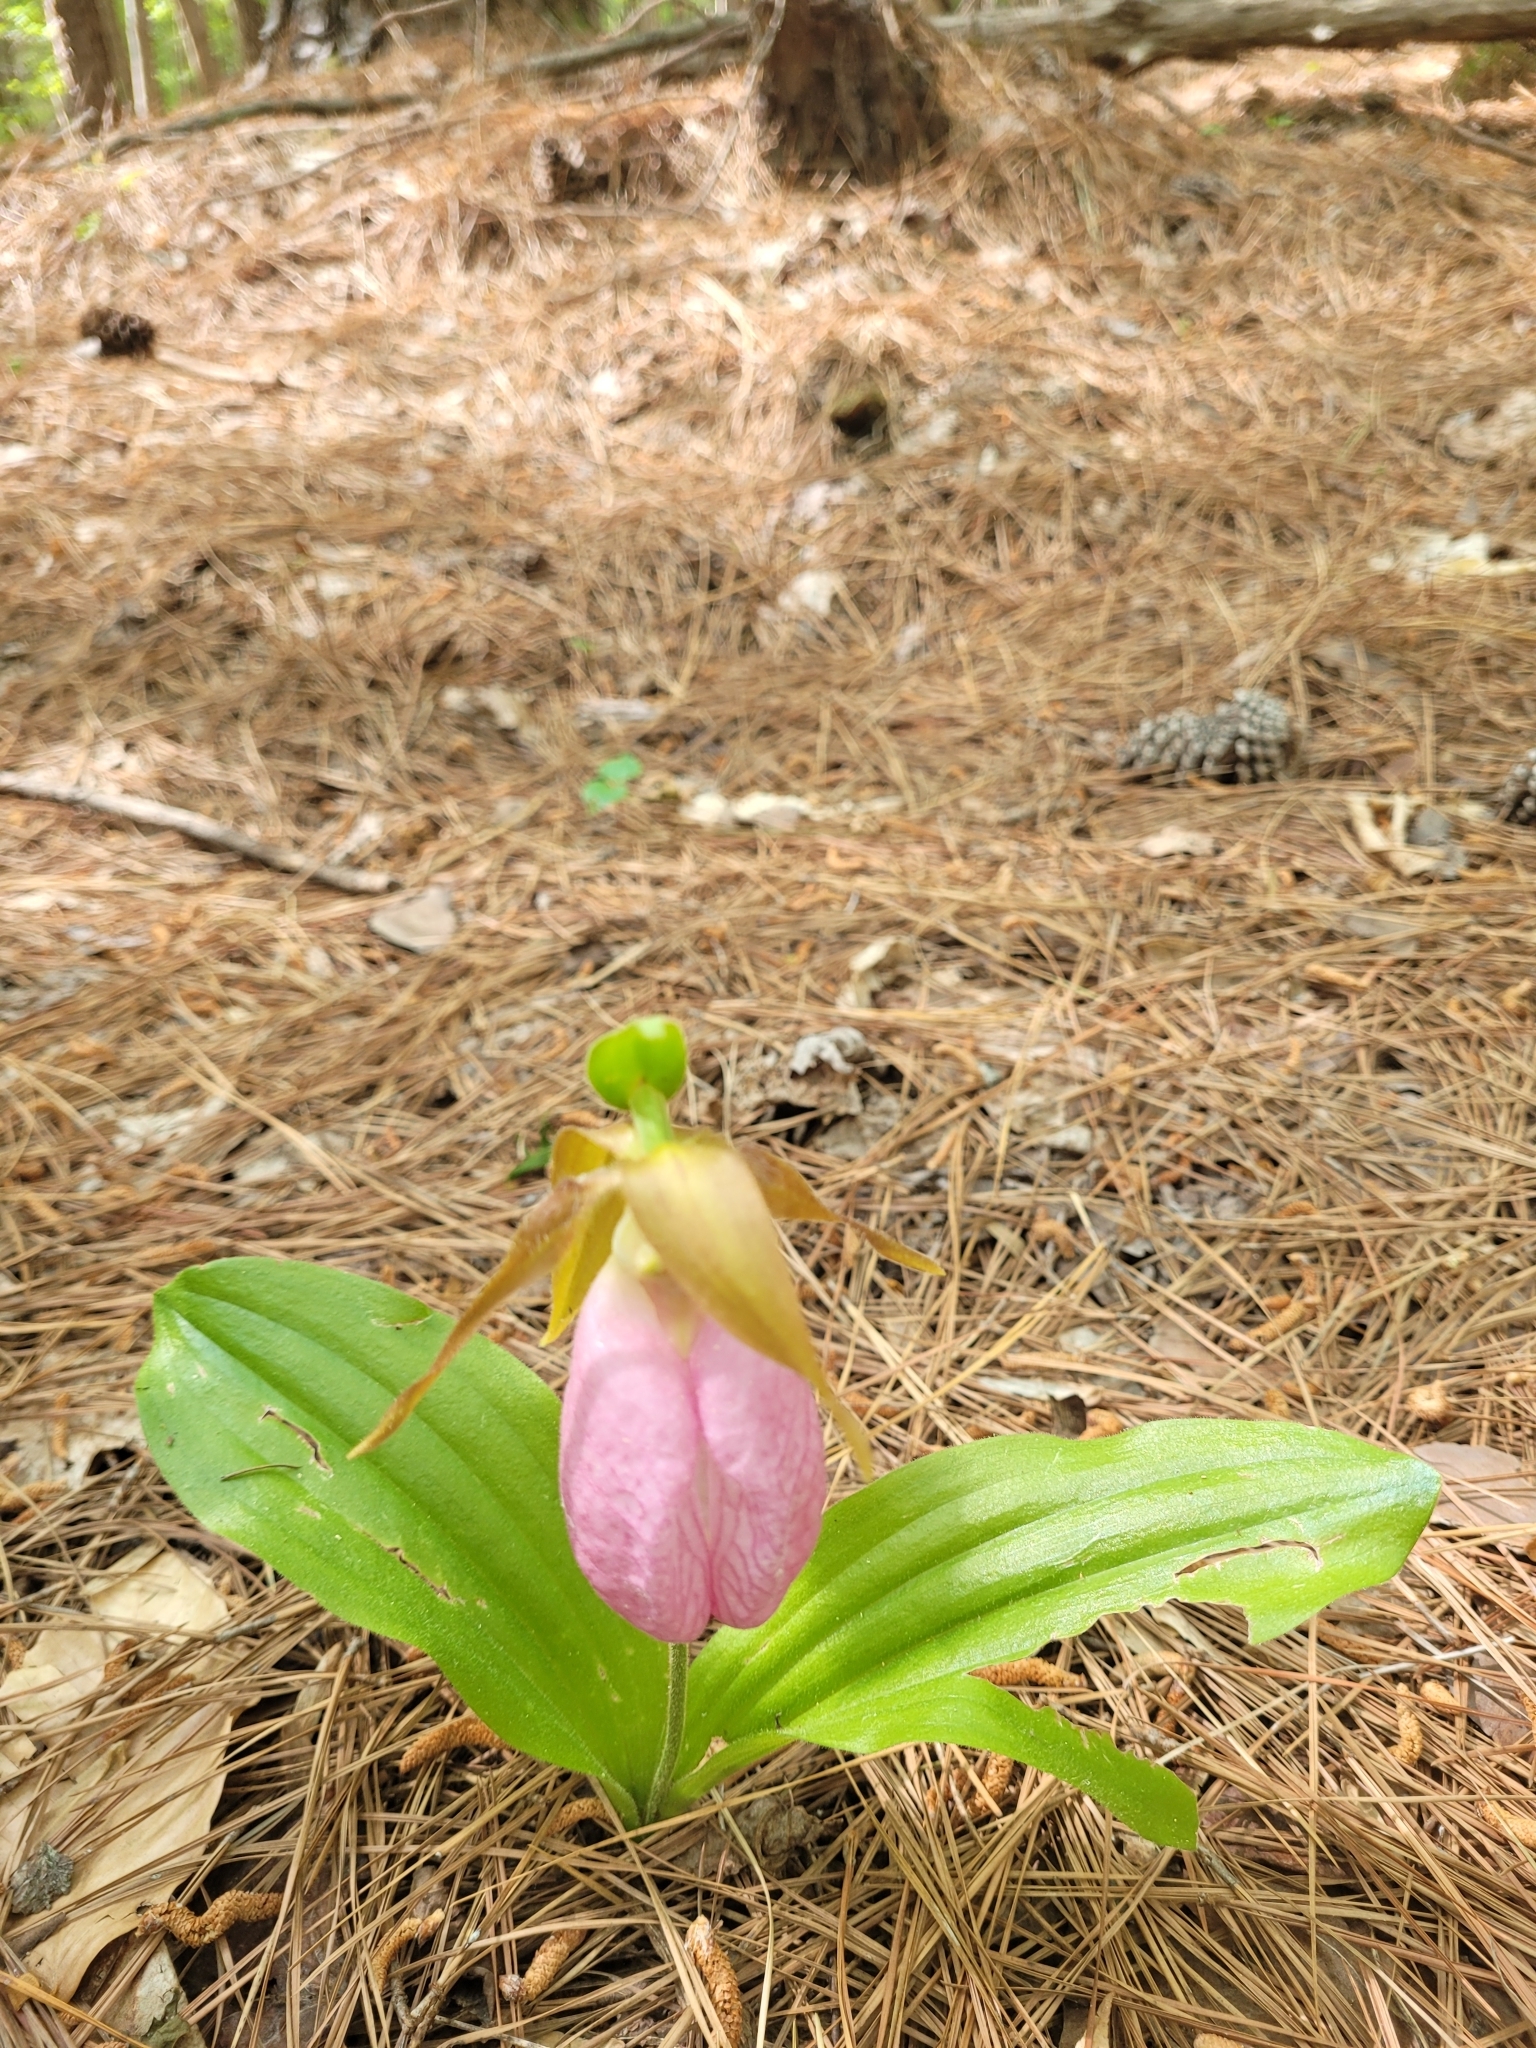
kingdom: Plantae
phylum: Tracheophyta
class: Liliopsida
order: Asparagales
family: Orchidaceae
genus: Cypripedium
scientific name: Cypripedium acaule
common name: Pink lady's-slipper
